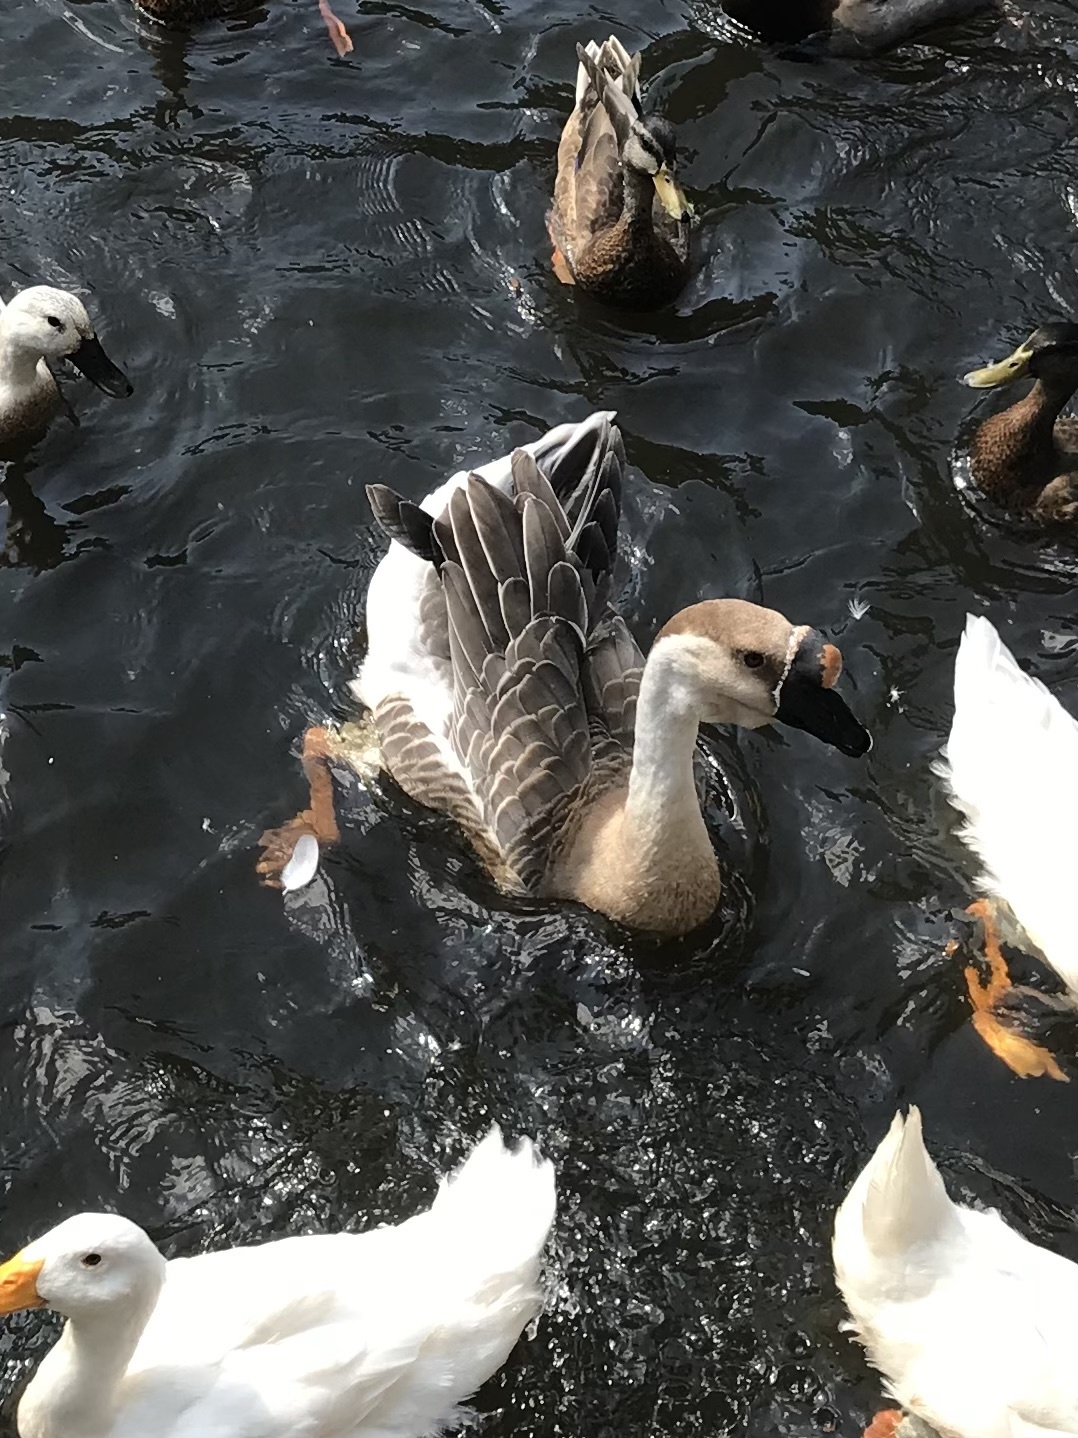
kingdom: Animalia
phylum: Chordata
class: Aves
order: Anseriformes
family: Anatidae
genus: Anser
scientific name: Anser cygnoides
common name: Swan goose
